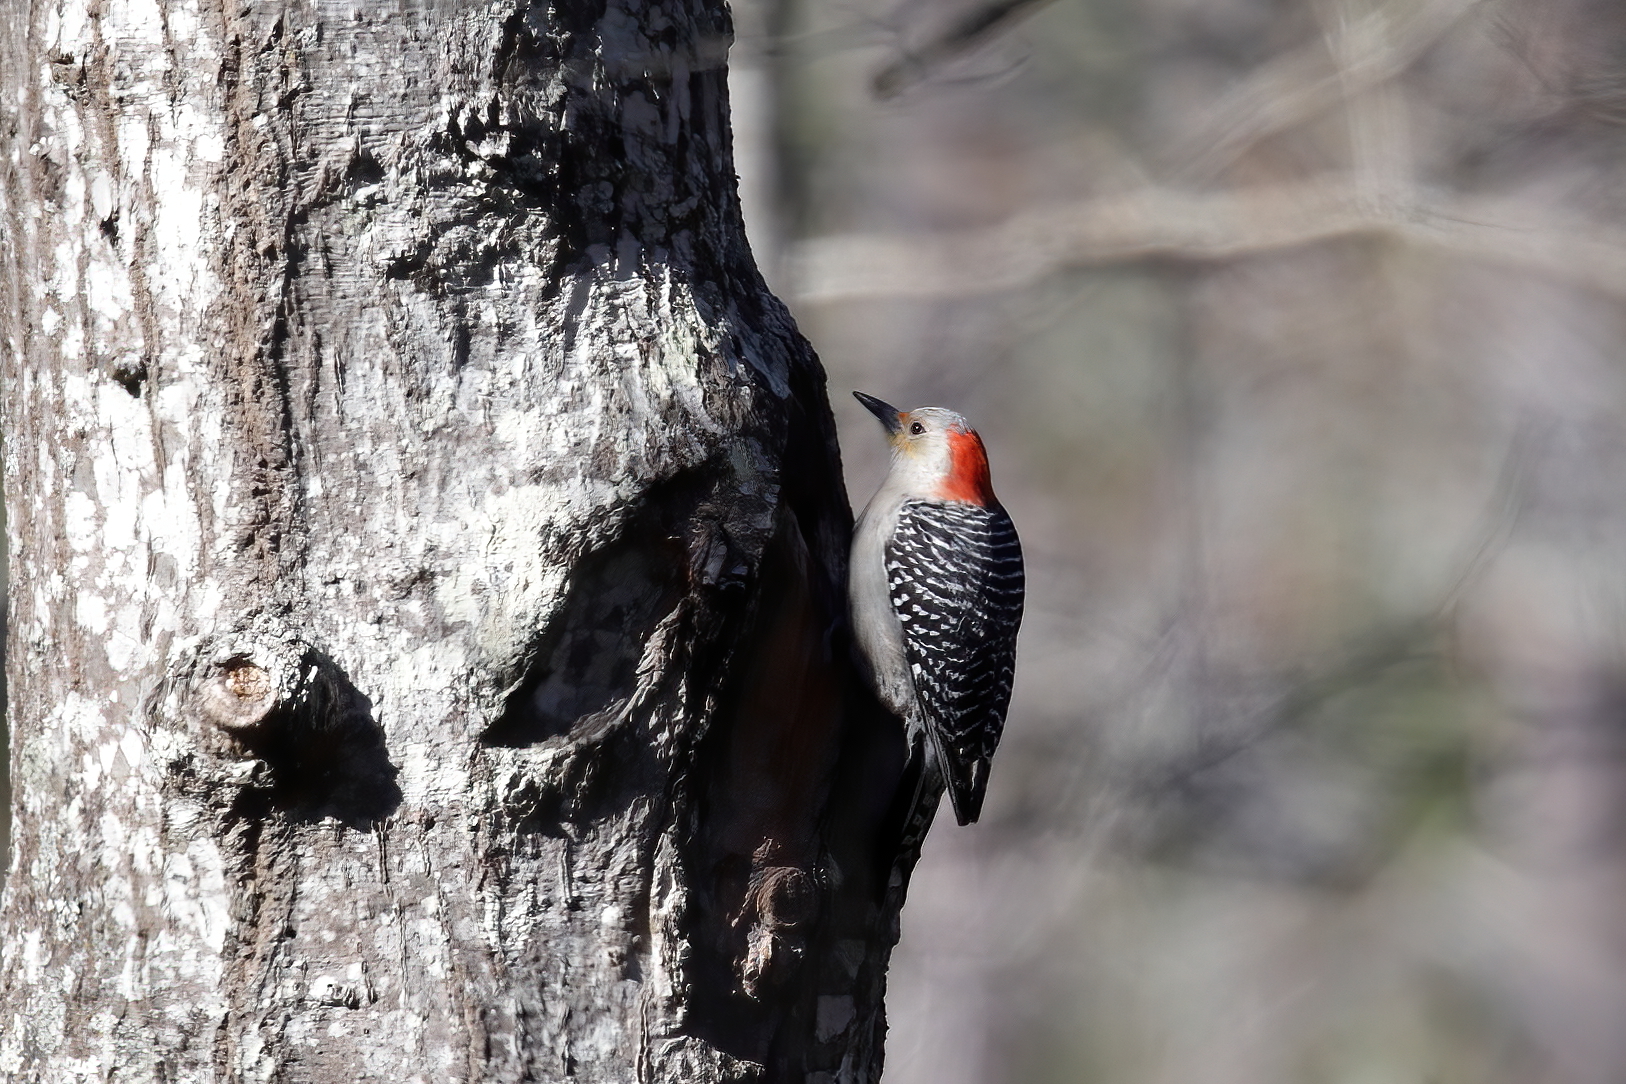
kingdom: Animalia
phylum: Chordata
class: Aves
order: Piciformes
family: Picidae
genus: Melanerpes
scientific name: Melanerpes carolinus
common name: Red-bellied woodpecker
